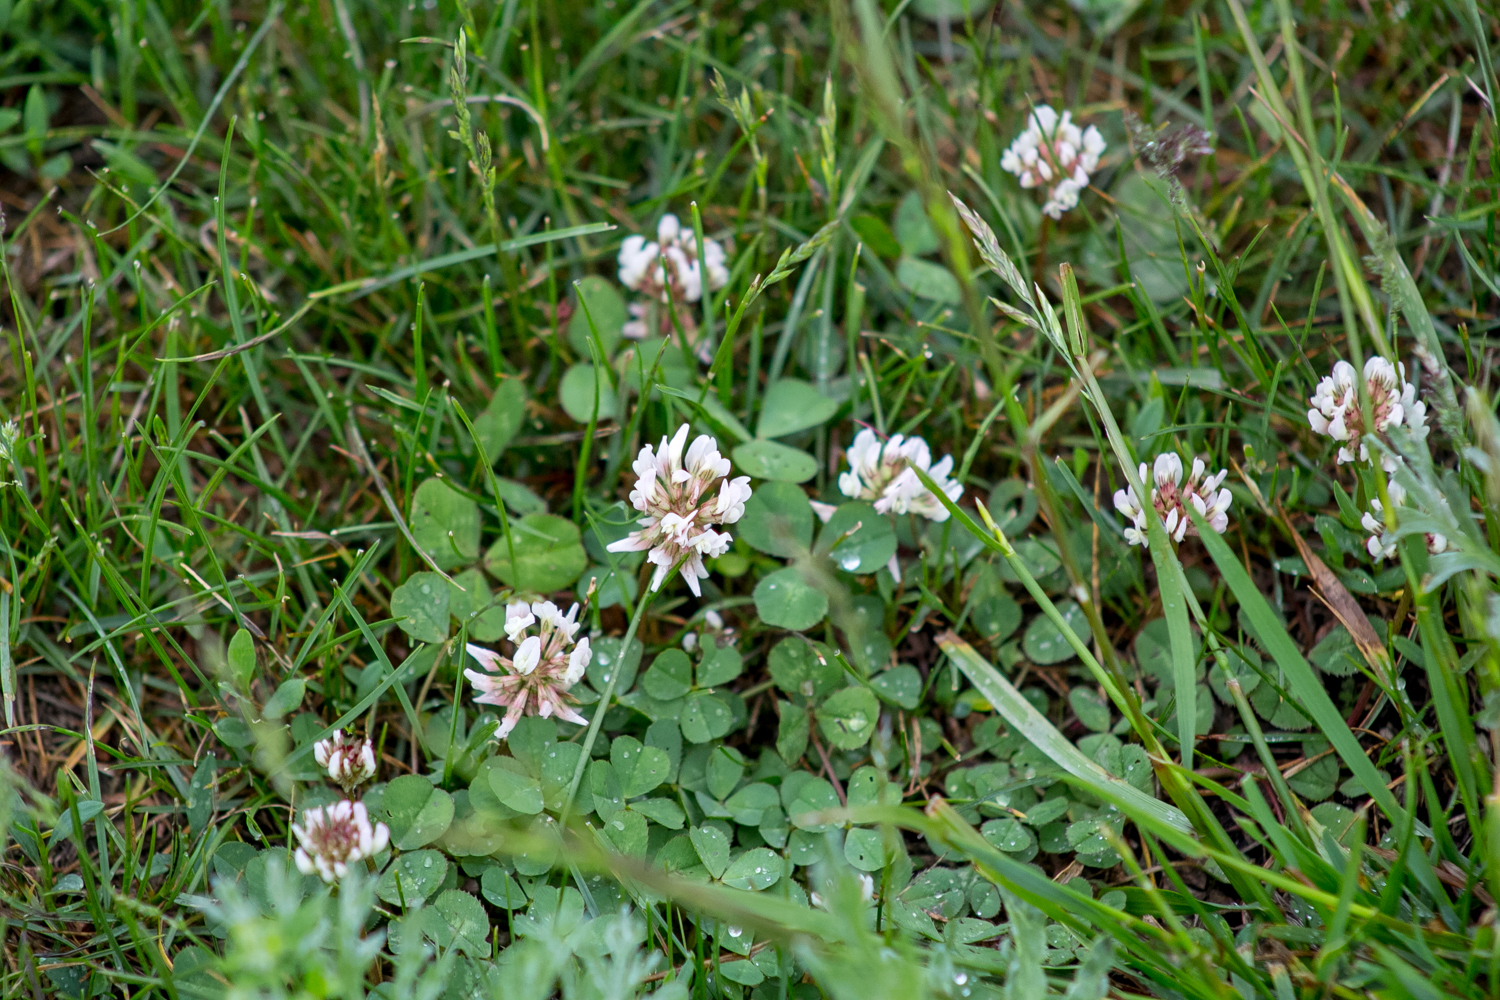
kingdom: Plantae
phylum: Tracheophyta
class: Magnoliopsida
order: Fabales
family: Fabaceae
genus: Trifolium
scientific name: Trifolium repens
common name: White clover
